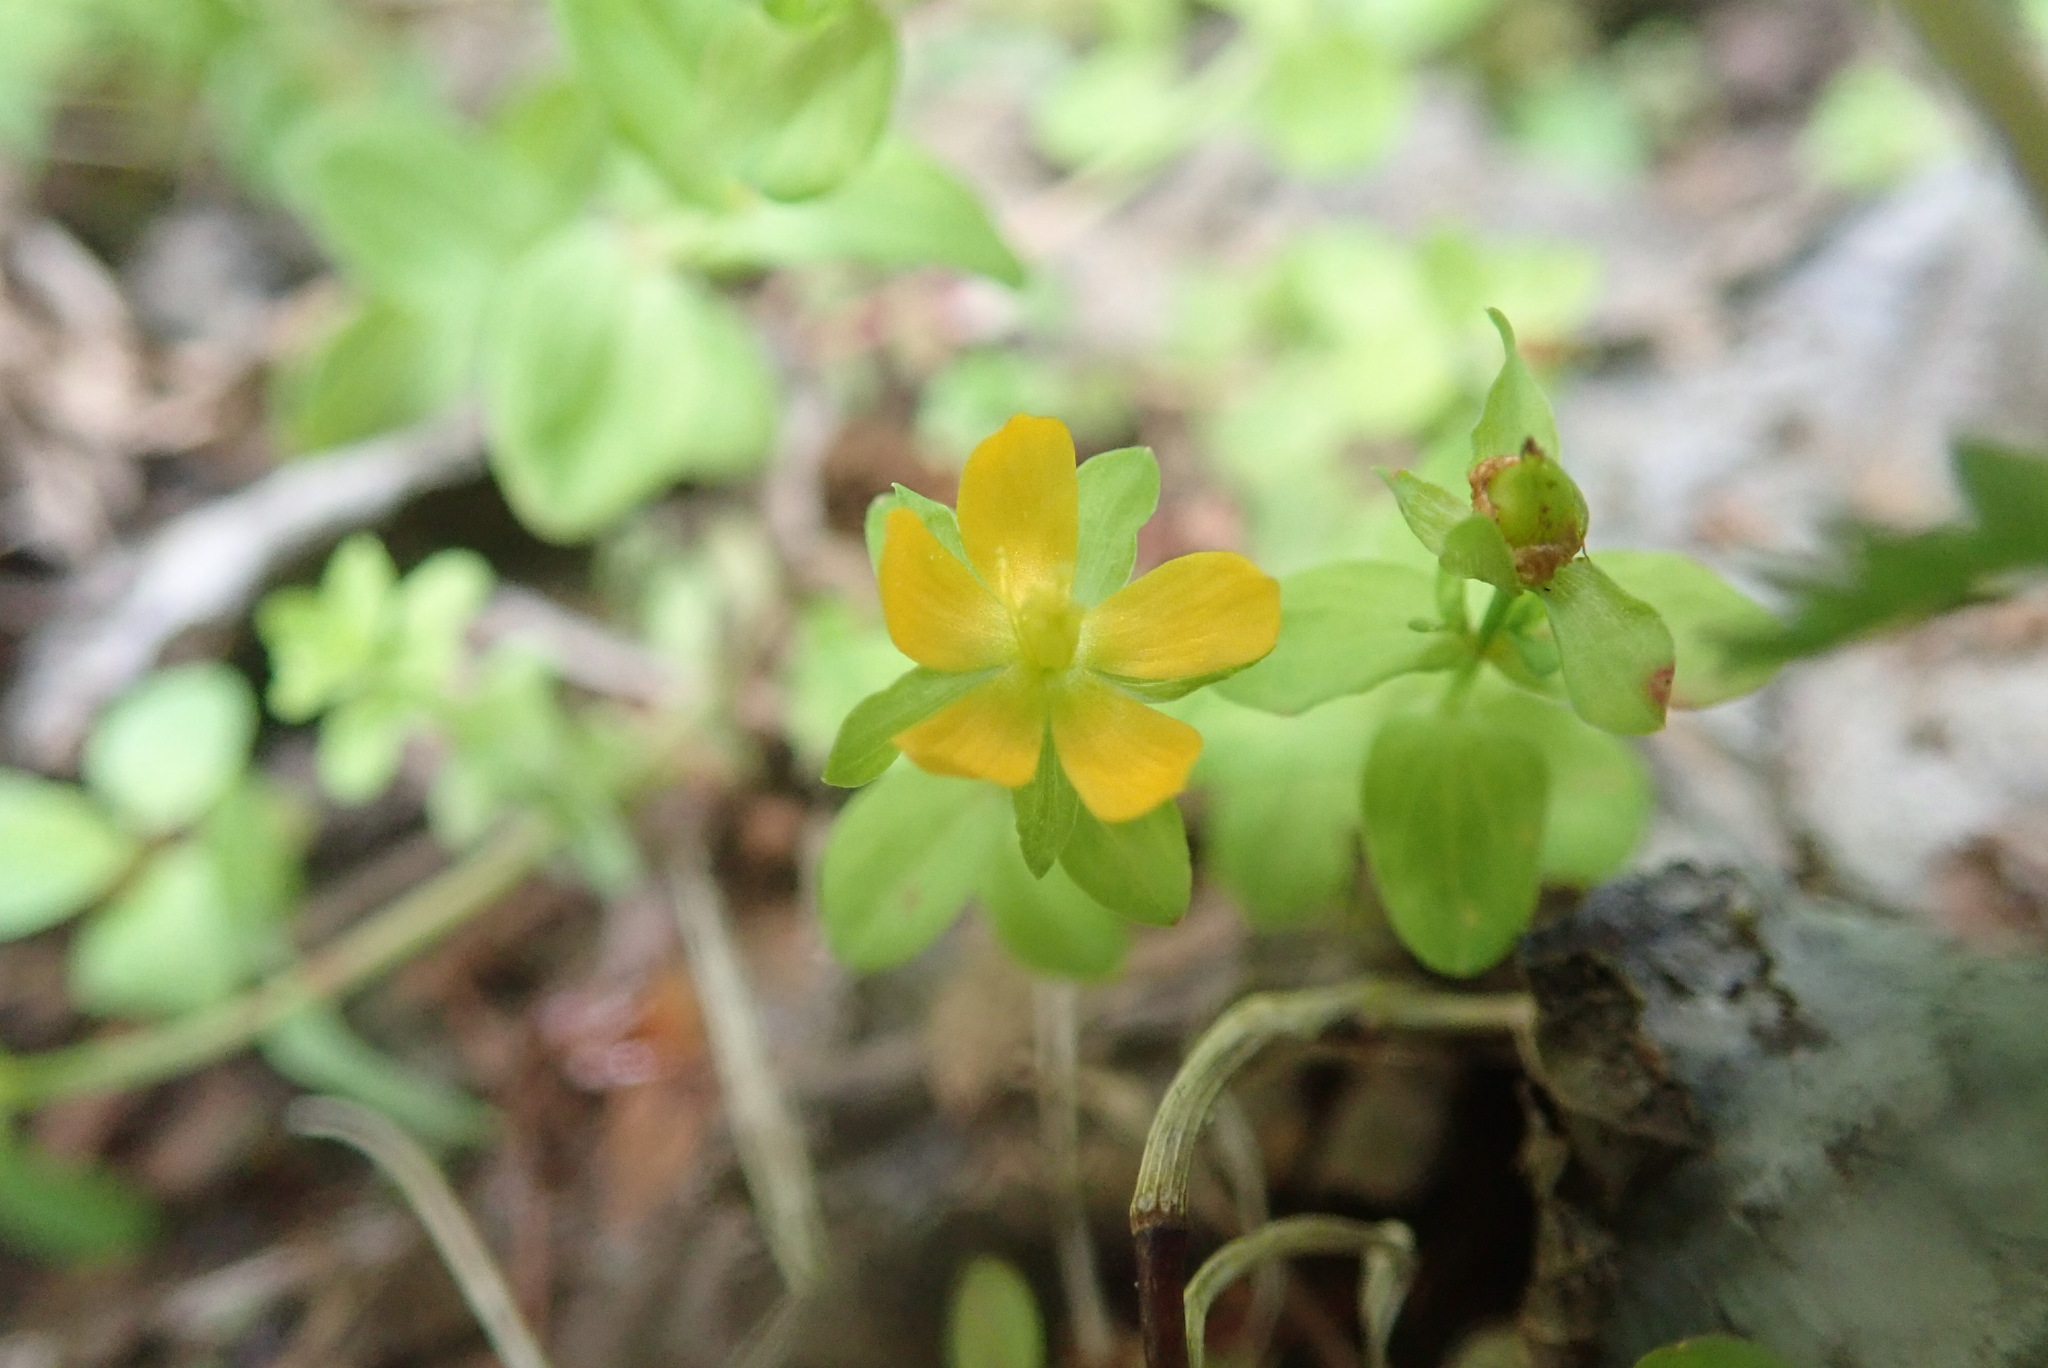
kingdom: Plantae
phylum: Tracheophyta
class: Magnoliopsida
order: Malpighiales
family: Hypericaceae
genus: Hypericum
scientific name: Hypericum anagalloides
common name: Bog st. john's-wort
